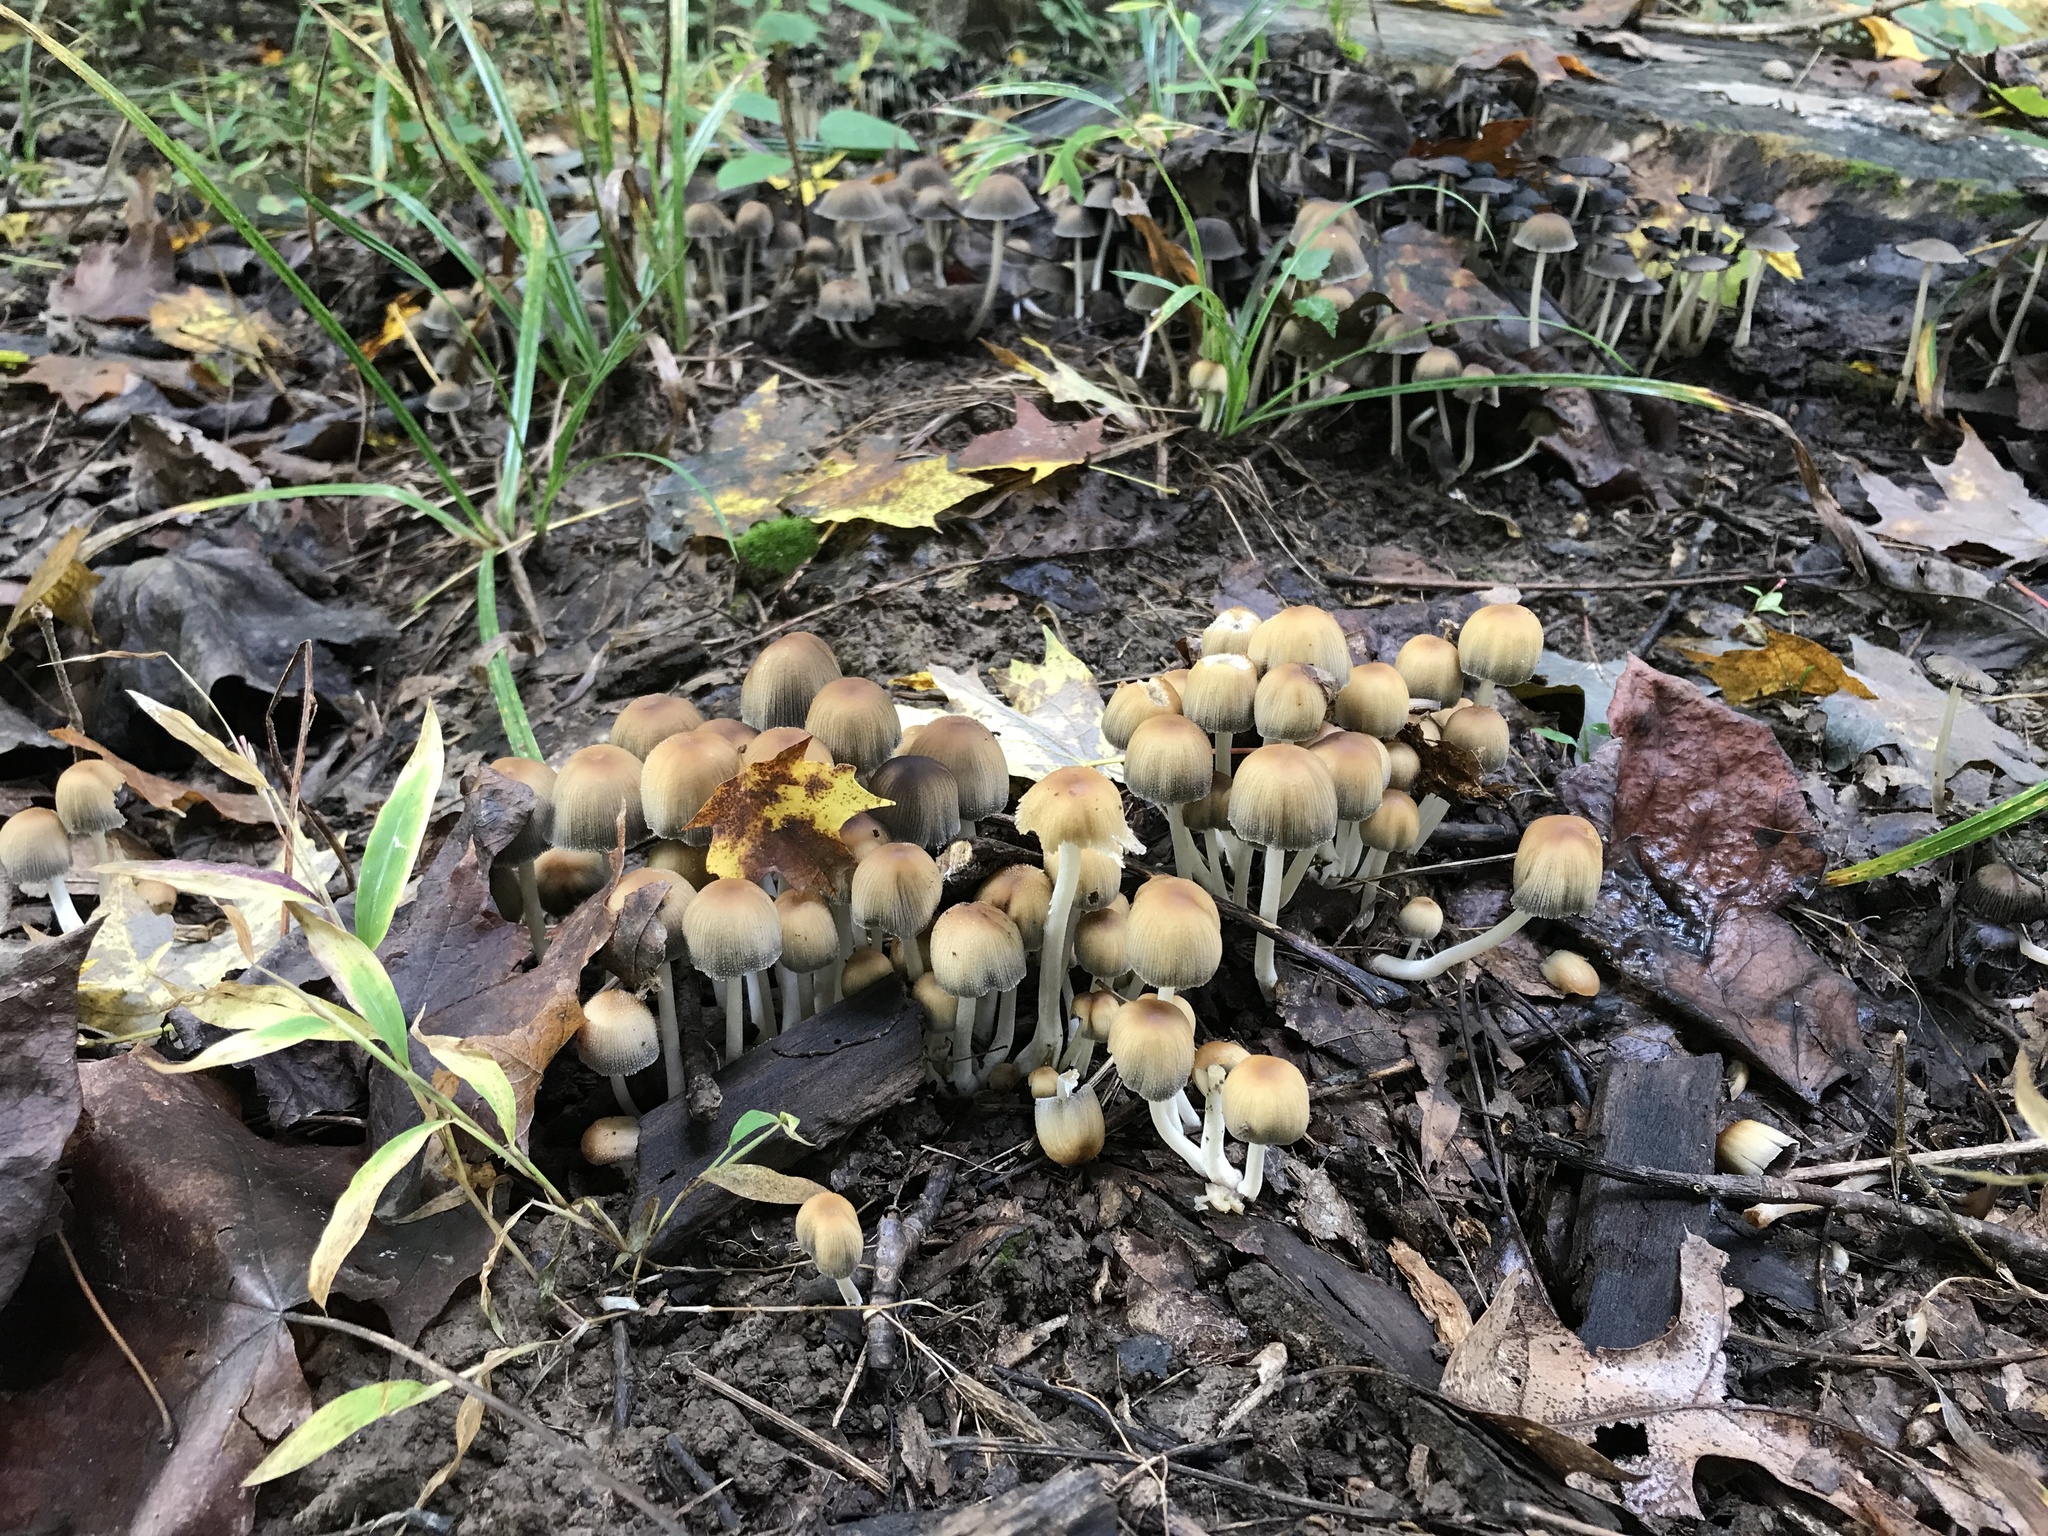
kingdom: Fungi
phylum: Basidiomycota
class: Agaricomycetes
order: Agaricales
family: Psathyrellaceae
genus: Coprinellus
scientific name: Coprinellus micaceus
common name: Glistening ink-cap
